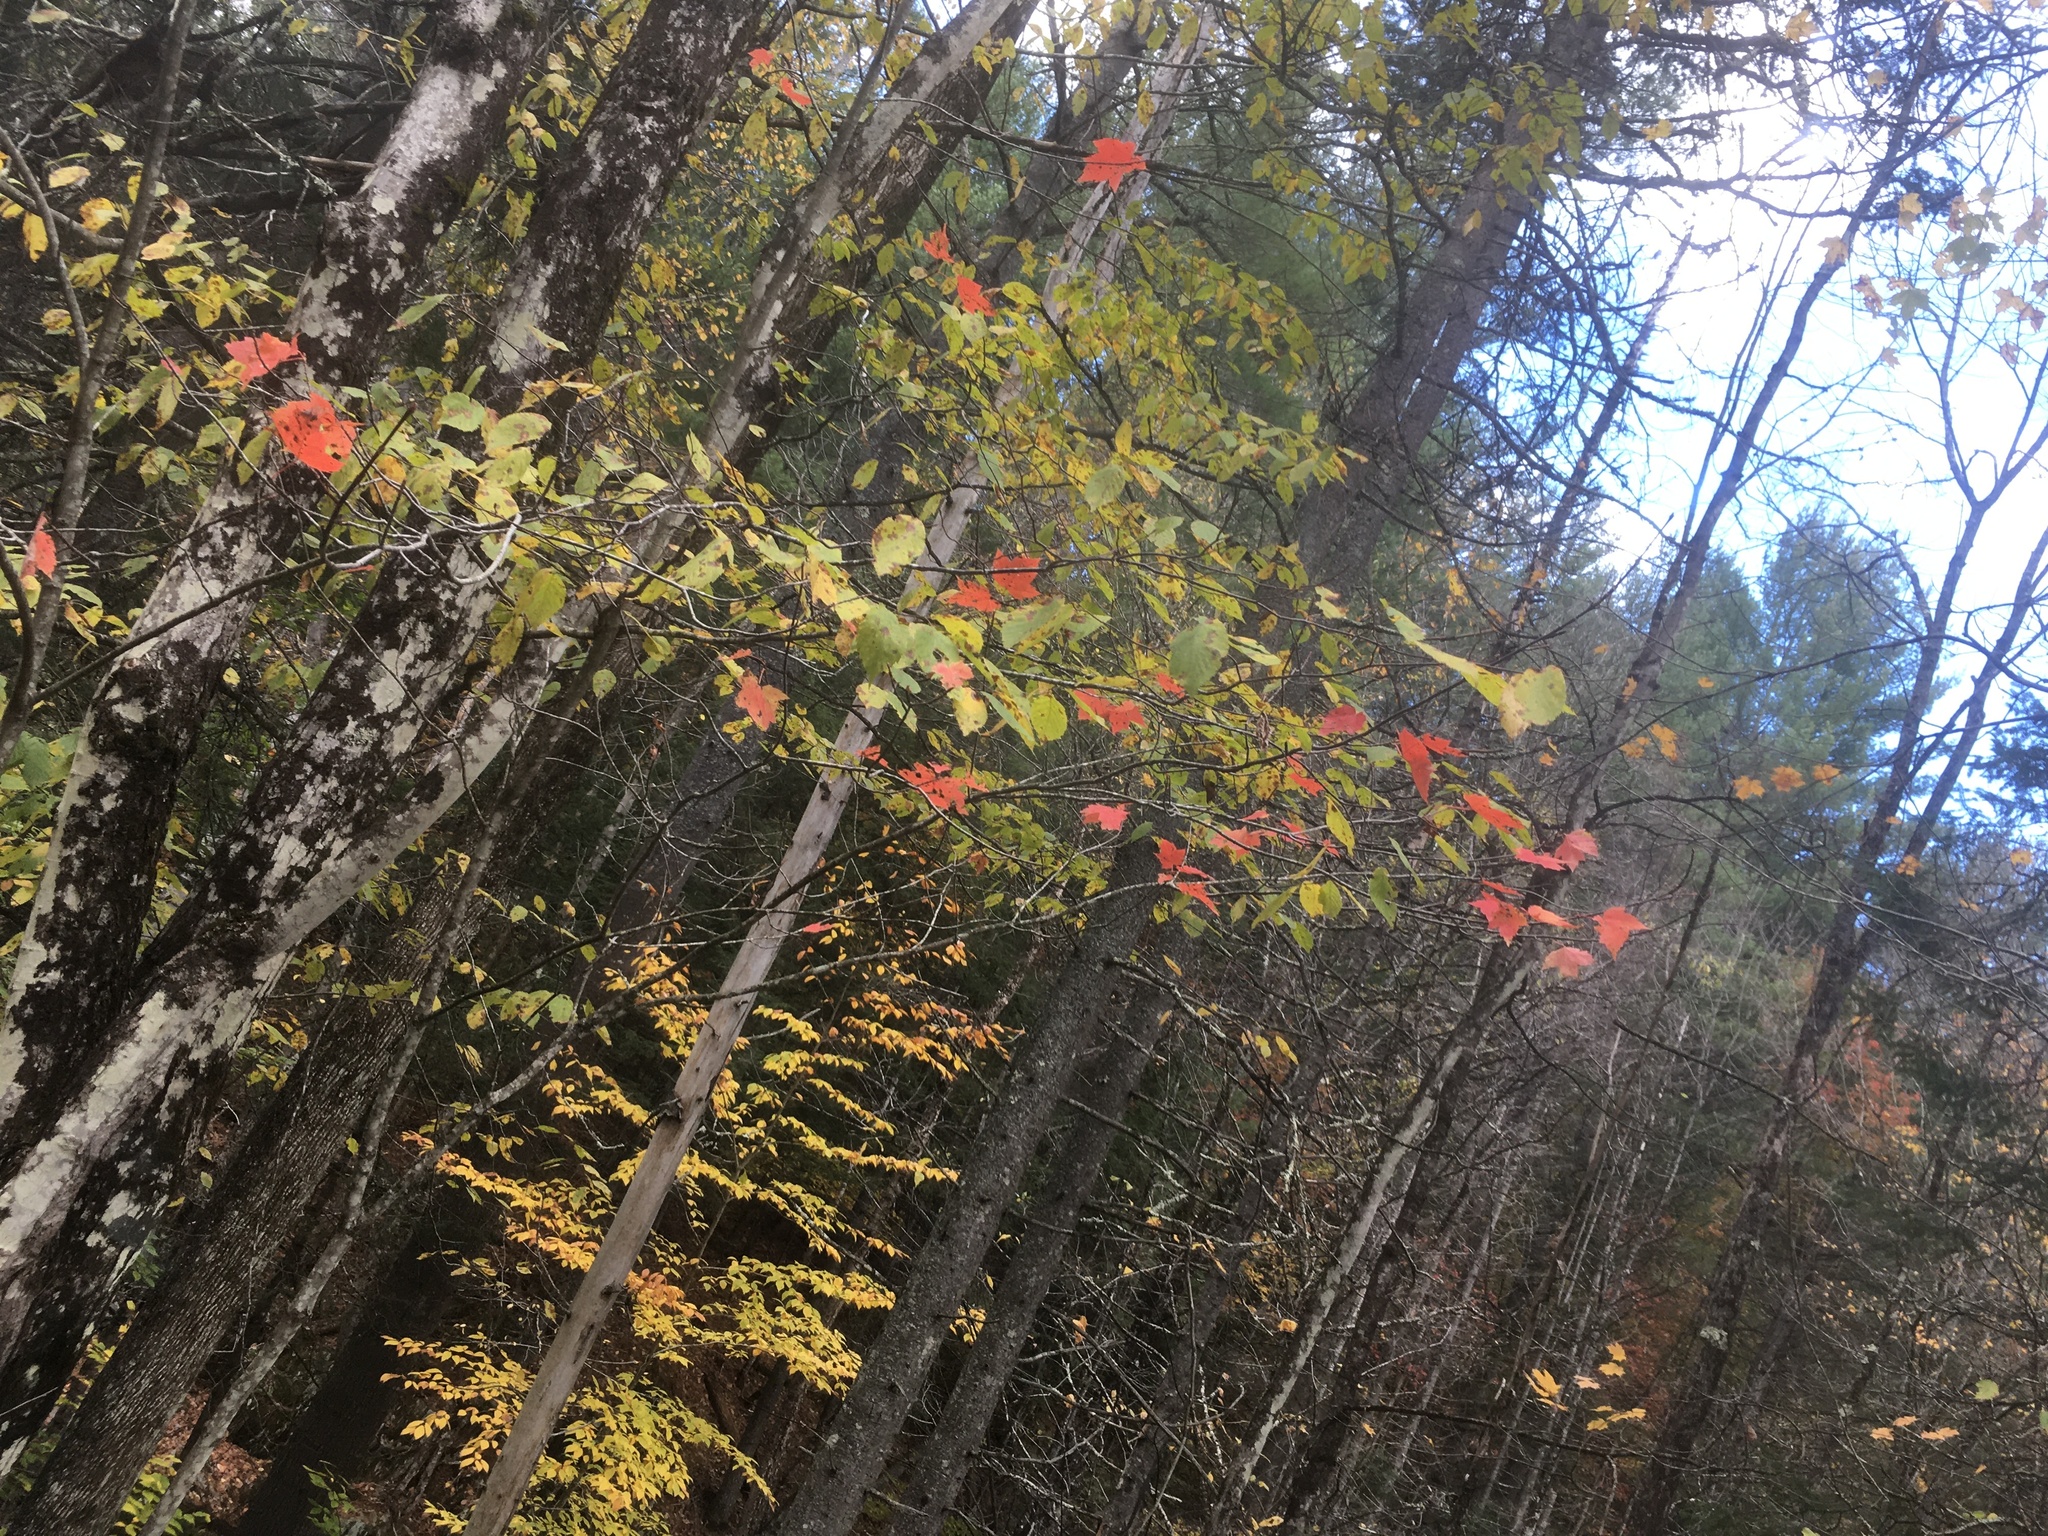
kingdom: Plantae
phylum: Tracheophyta
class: Magnoliopsida
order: Sapindales
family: Sapindaceae
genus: Acer
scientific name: Acer rubrum
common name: Red maple
